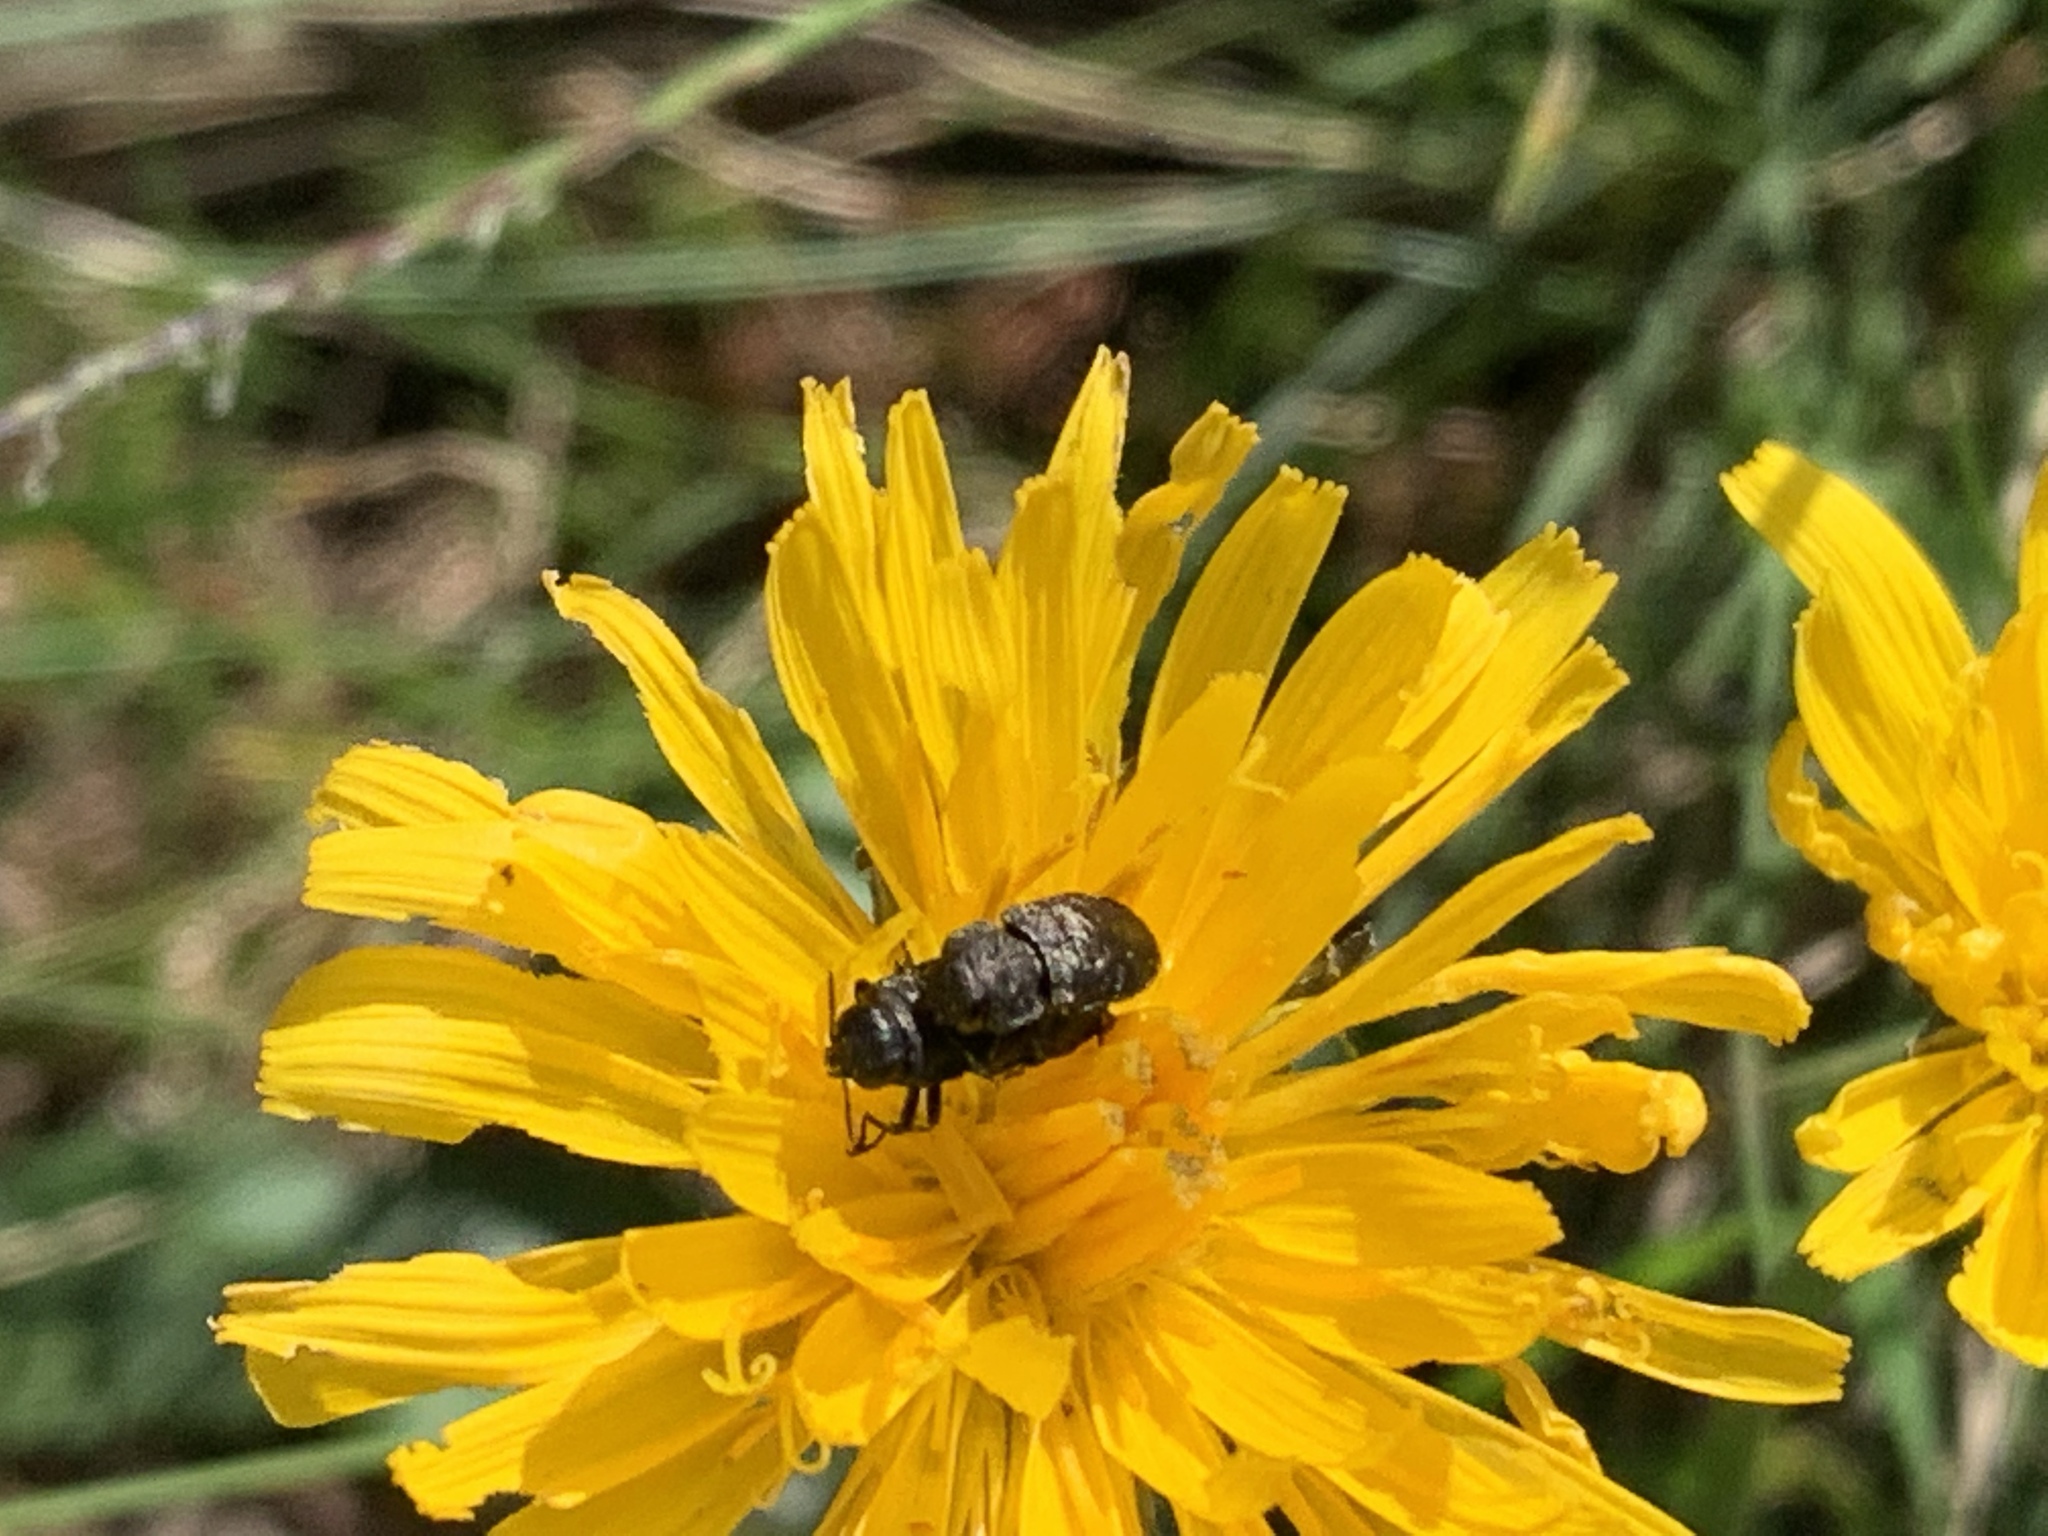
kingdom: Animalia
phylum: Arthropoda
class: Insecta
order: Coleoptera
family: Buprestidae
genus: Anthaxia
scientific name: Anthaxia quadripunctata
